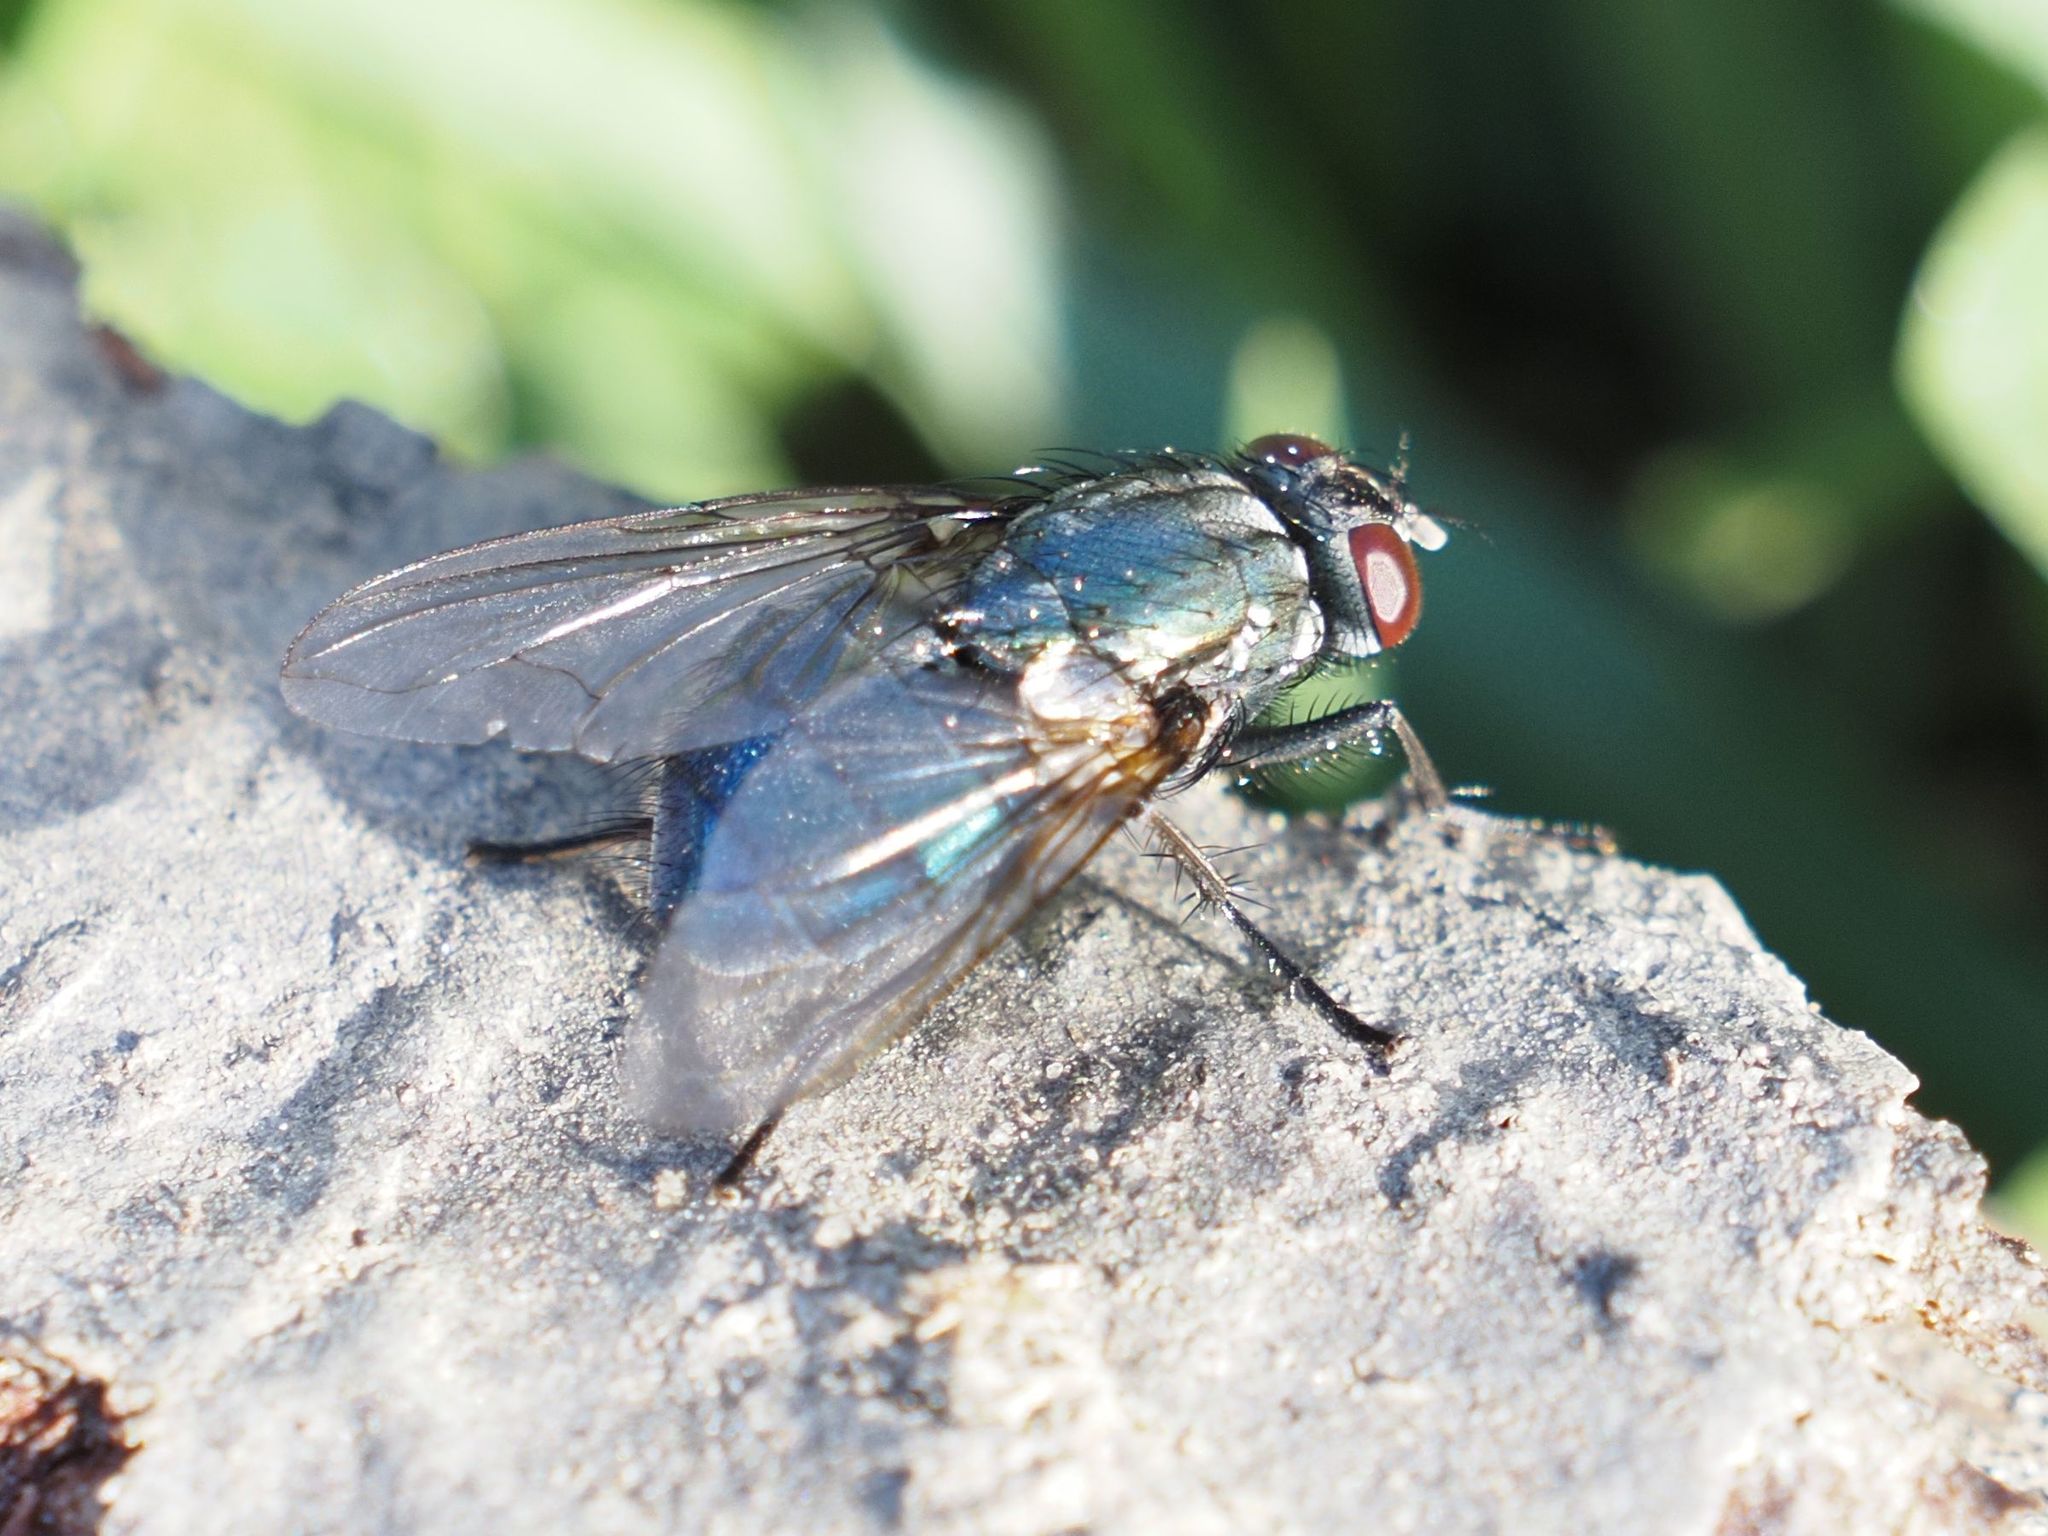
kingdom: Animalia
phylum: Arthropoda
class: Insecta
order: Diptera
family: Muscidae
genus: Dasyphora
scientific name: Dasyphora zimini
